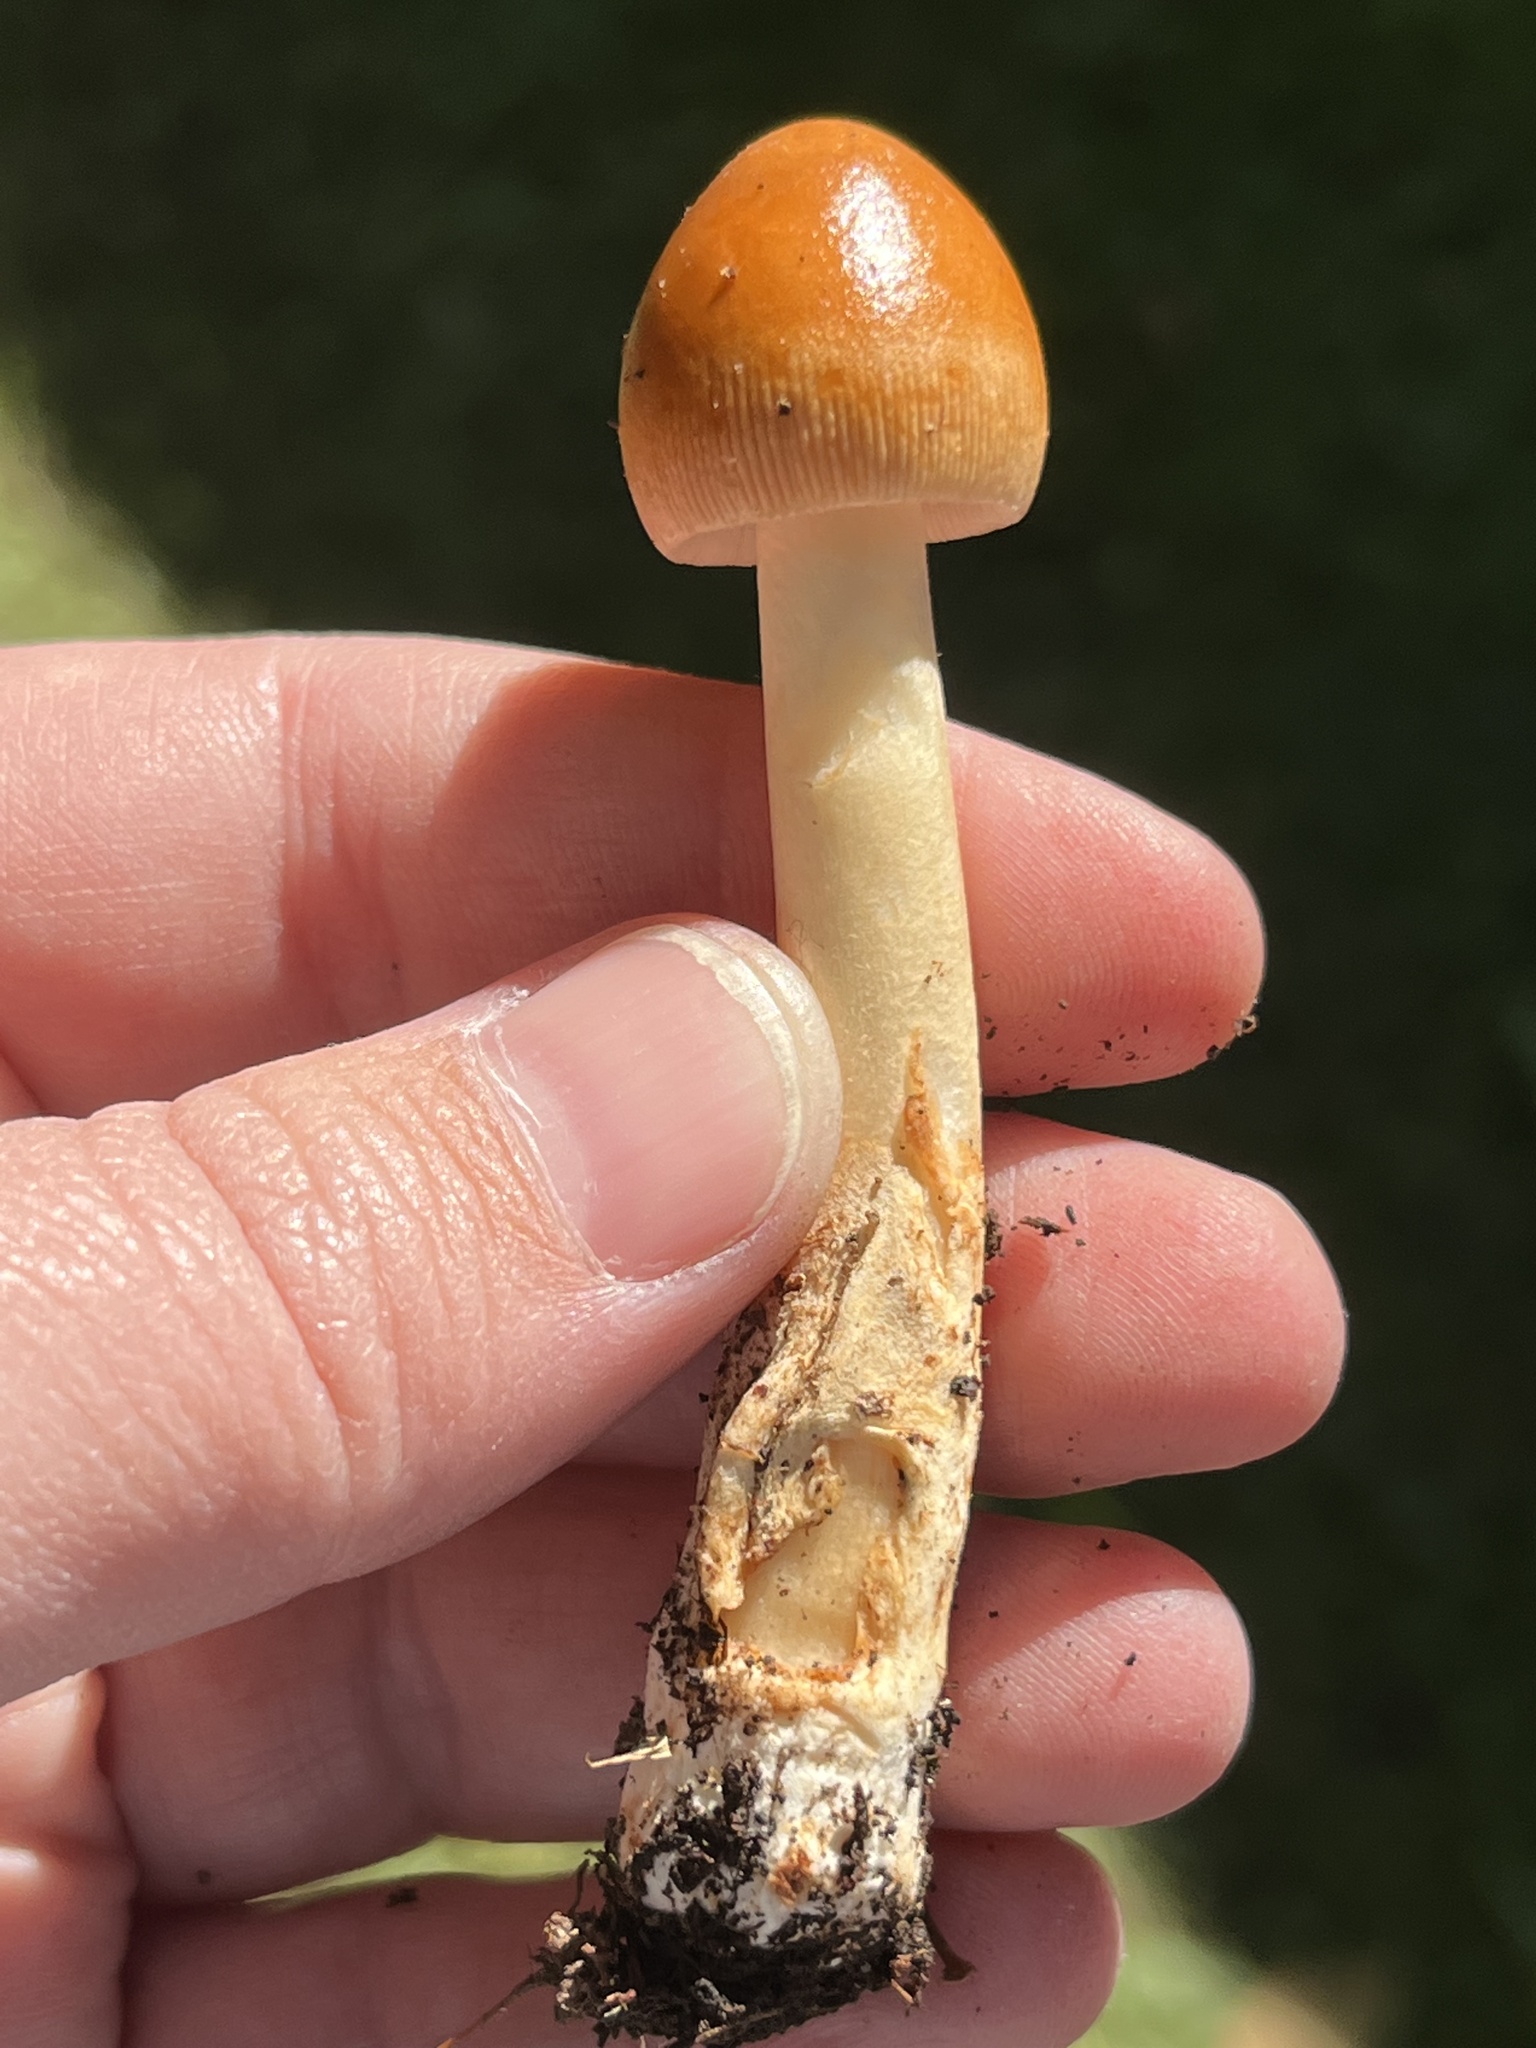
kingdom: Fungi
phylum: Basidiomycota
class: Agaricomycetes
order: Agaricales
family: Amanitaceae
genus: Amanita
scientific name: Amanita fulva
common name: Tawny grisette
